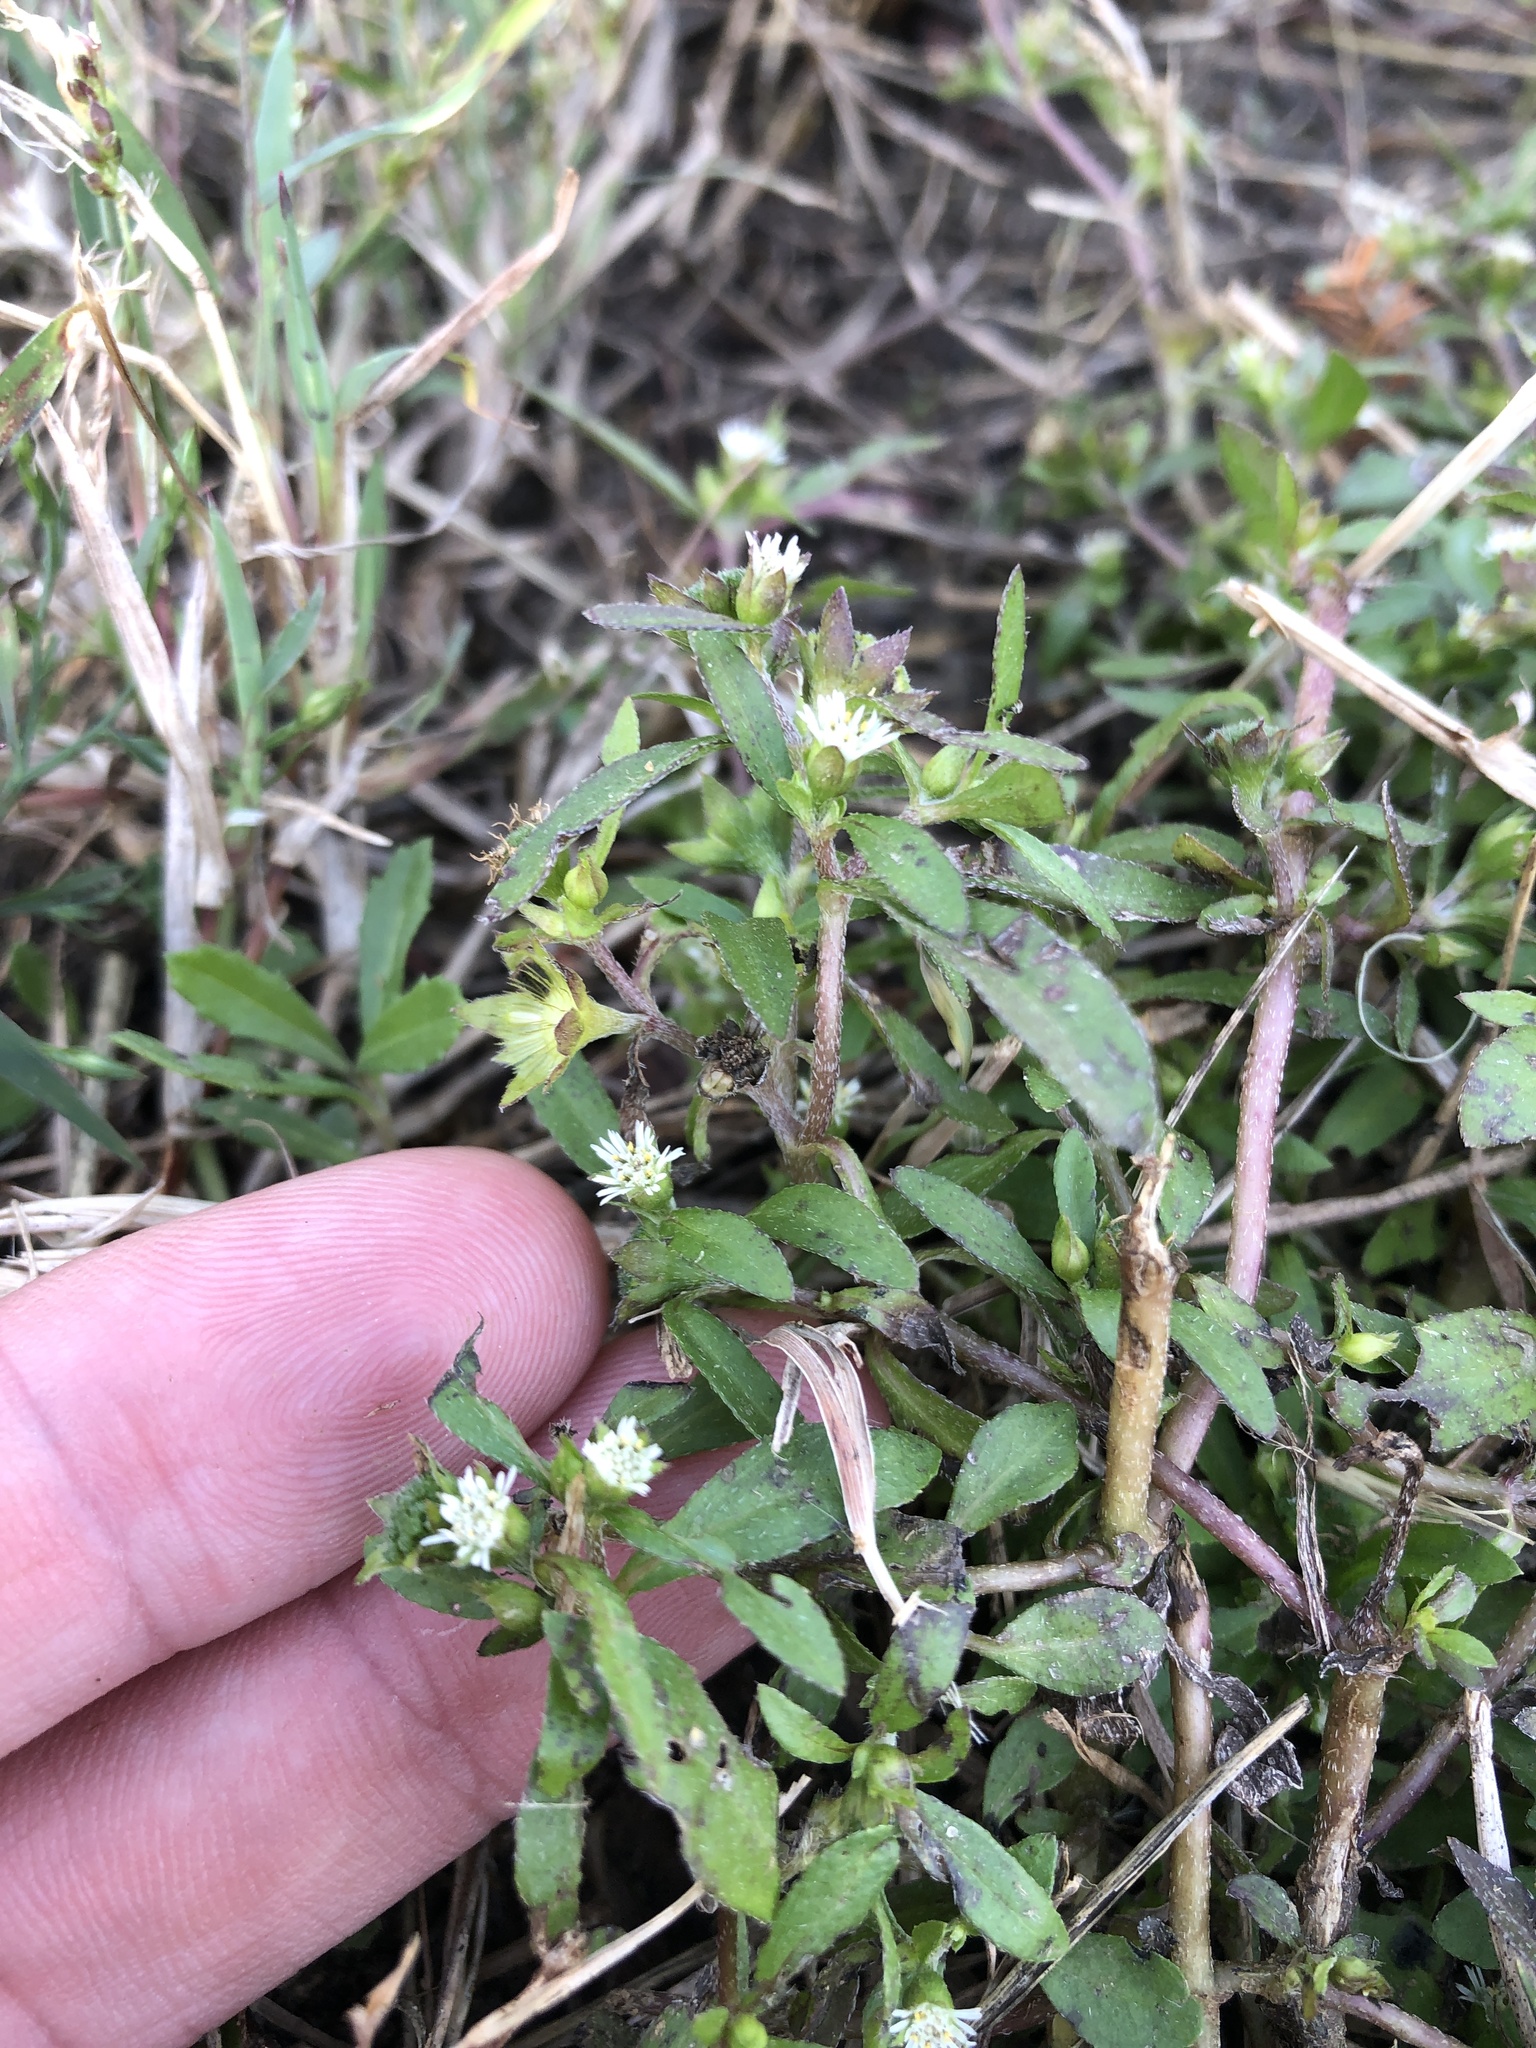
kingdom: Plantae
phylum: Tracheophyta
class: Magnoliopsida
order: Asterales
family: Asteraceae
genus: Eclipta
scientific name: Eclipta prostrata
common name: False daisy
